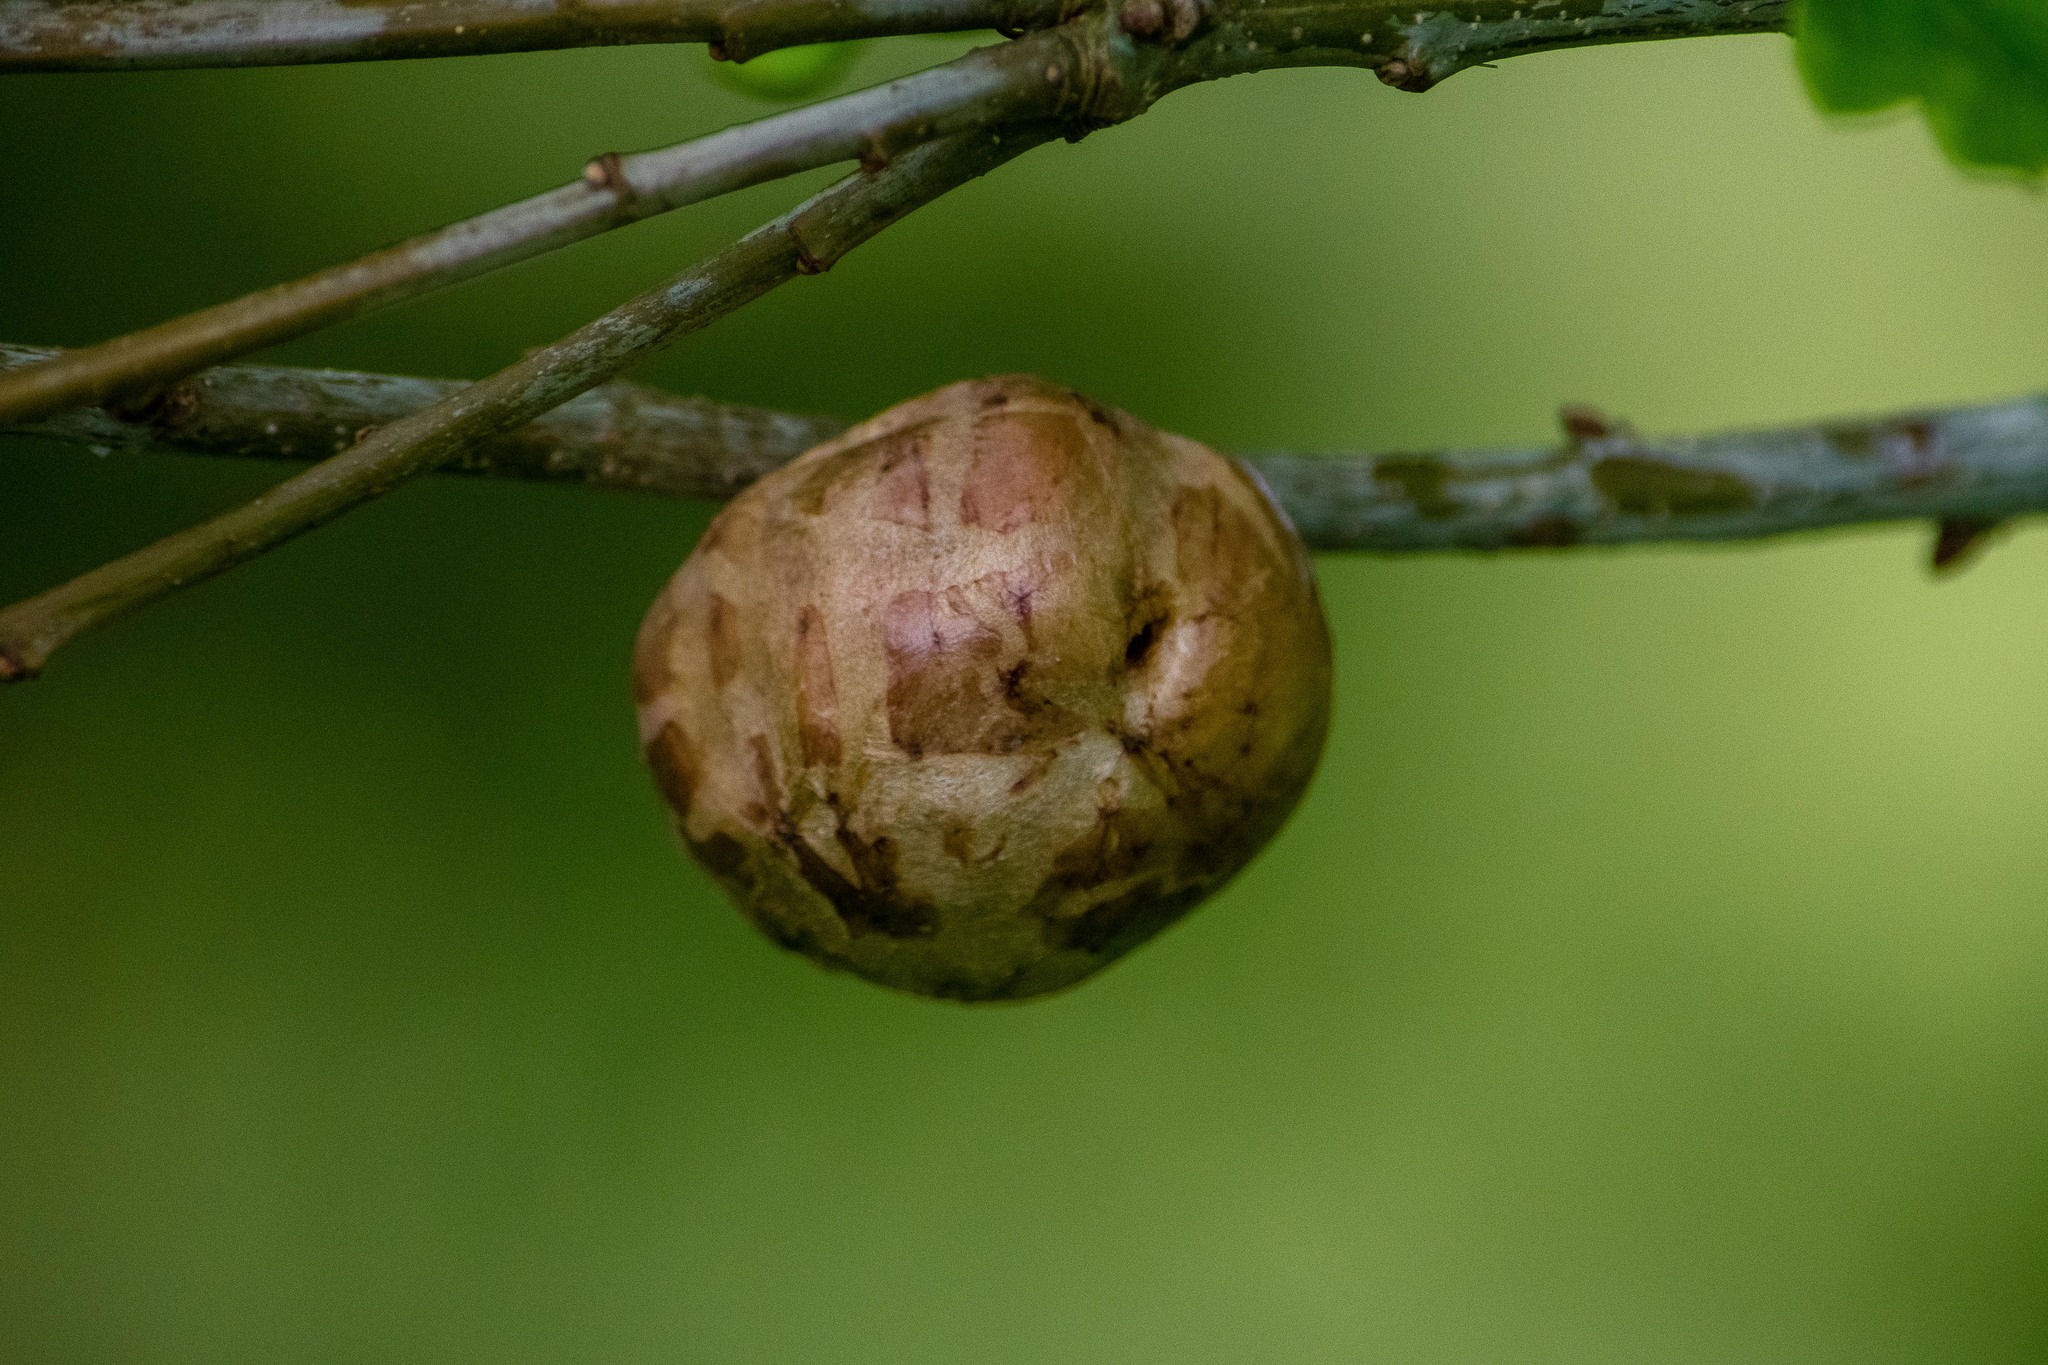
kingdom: Animalia
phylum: Arthropoda
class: Insecta
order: Hymenoptera
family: Cynipidae
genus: Biorhiza
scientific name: Biorhiza pallida
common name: Oak apple
